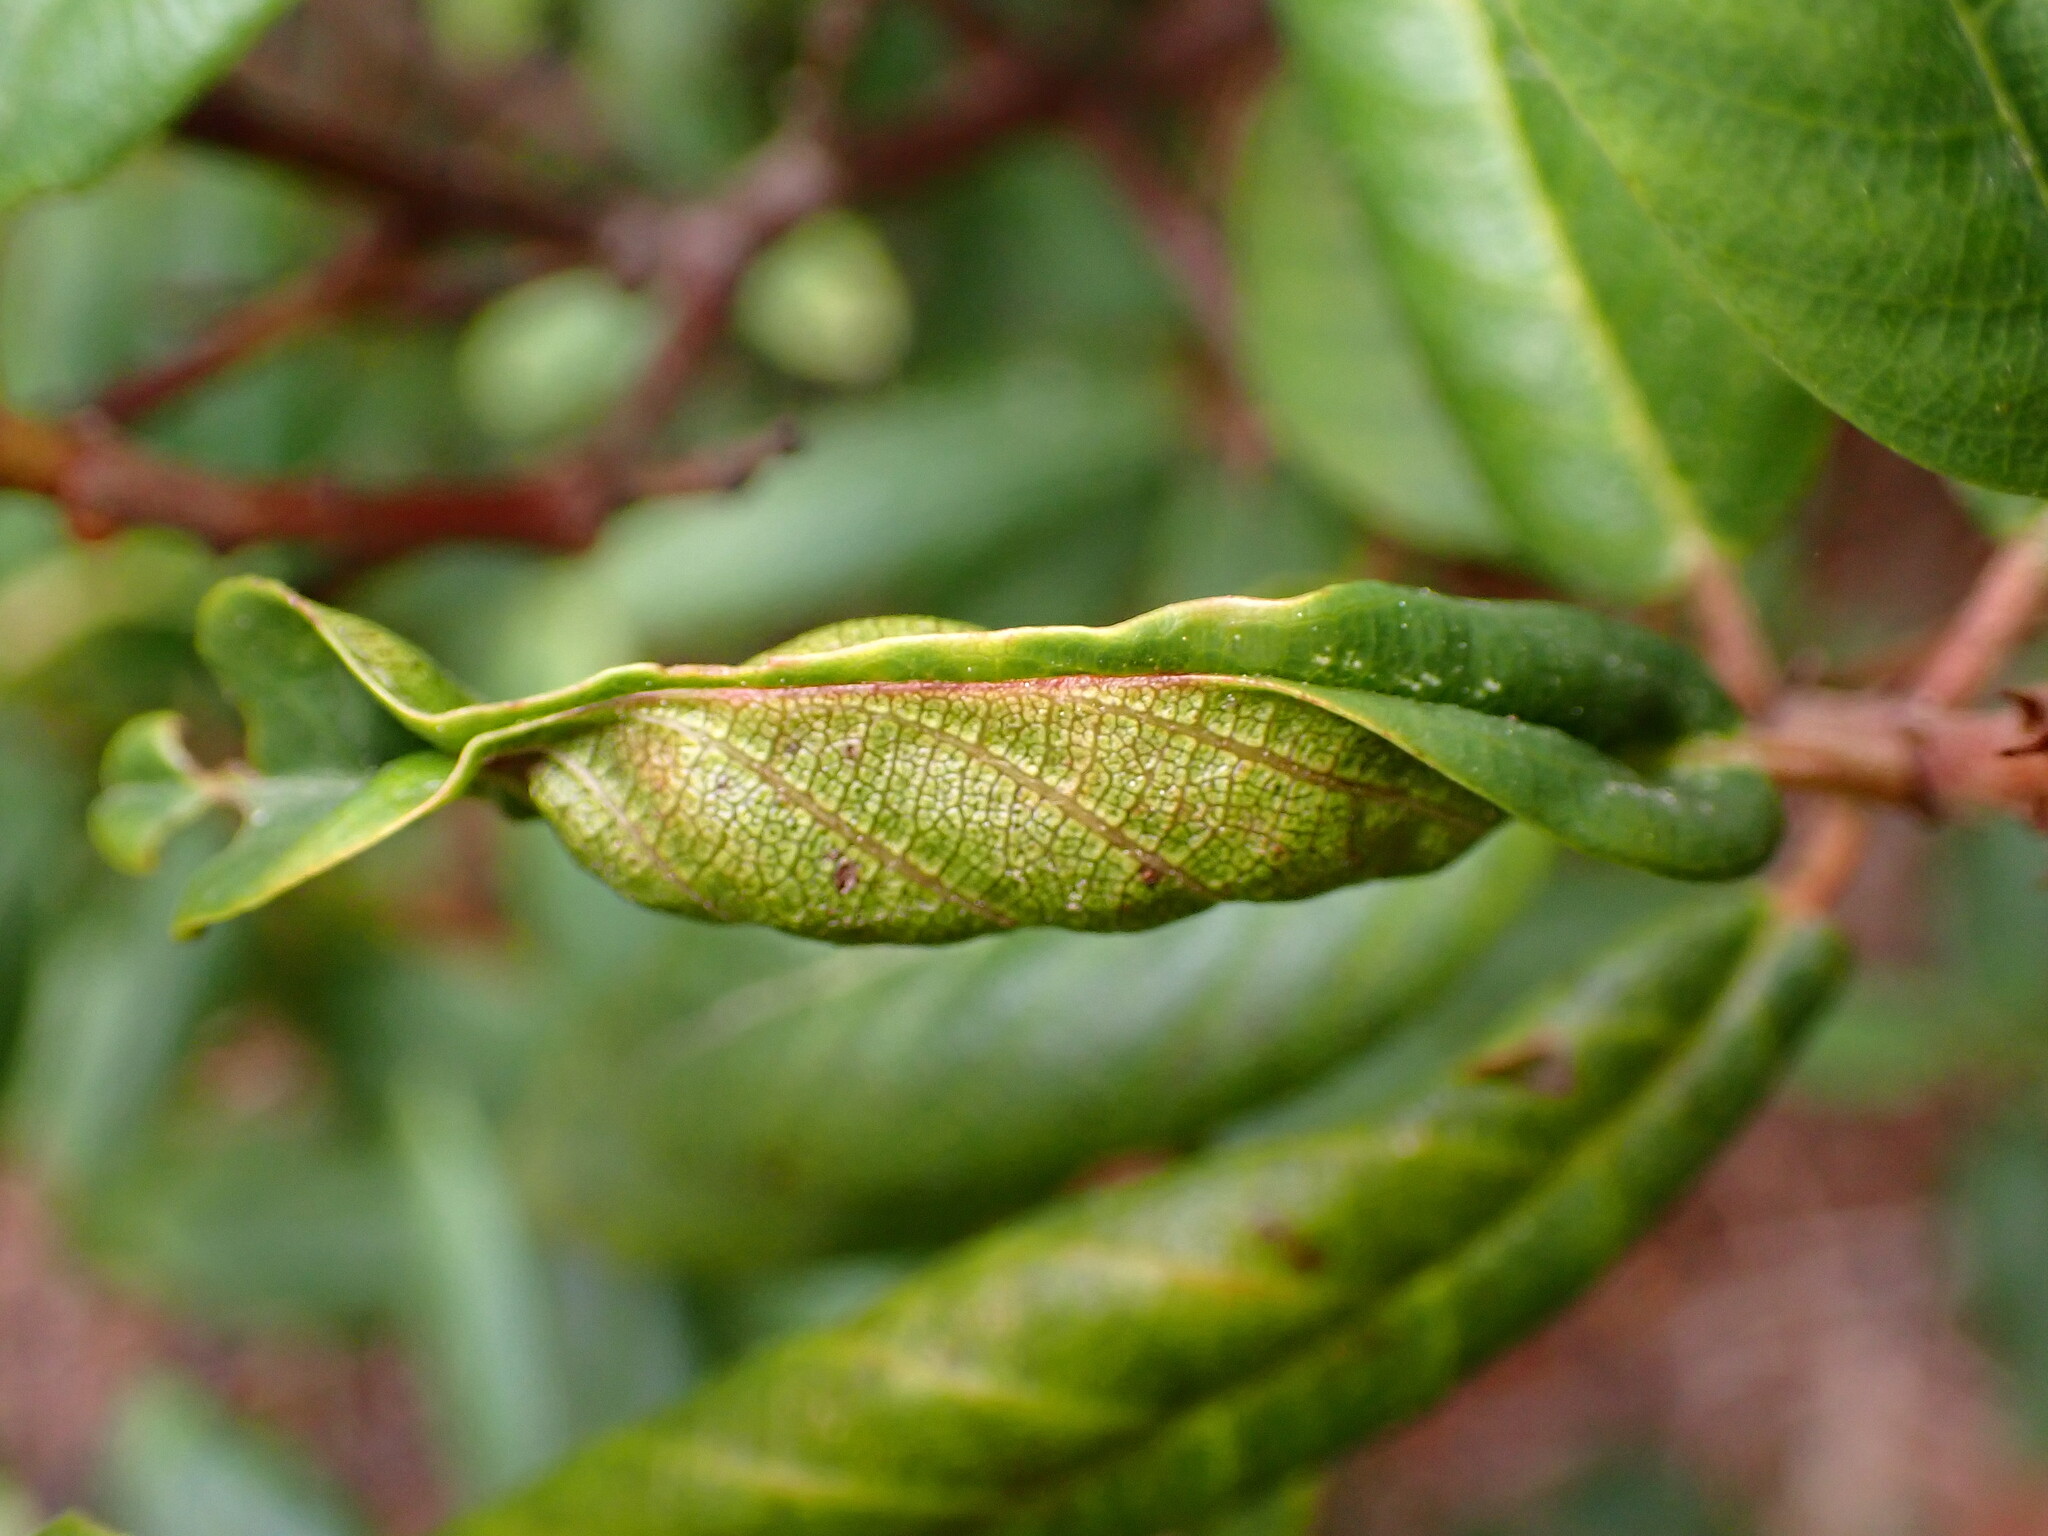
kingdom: Animalia
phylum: Arthropoda
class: Insecta
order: Lepidoptera
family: Cosmopterigidae
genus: Sorhagenia
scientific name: Sorhagenia nimbosus
